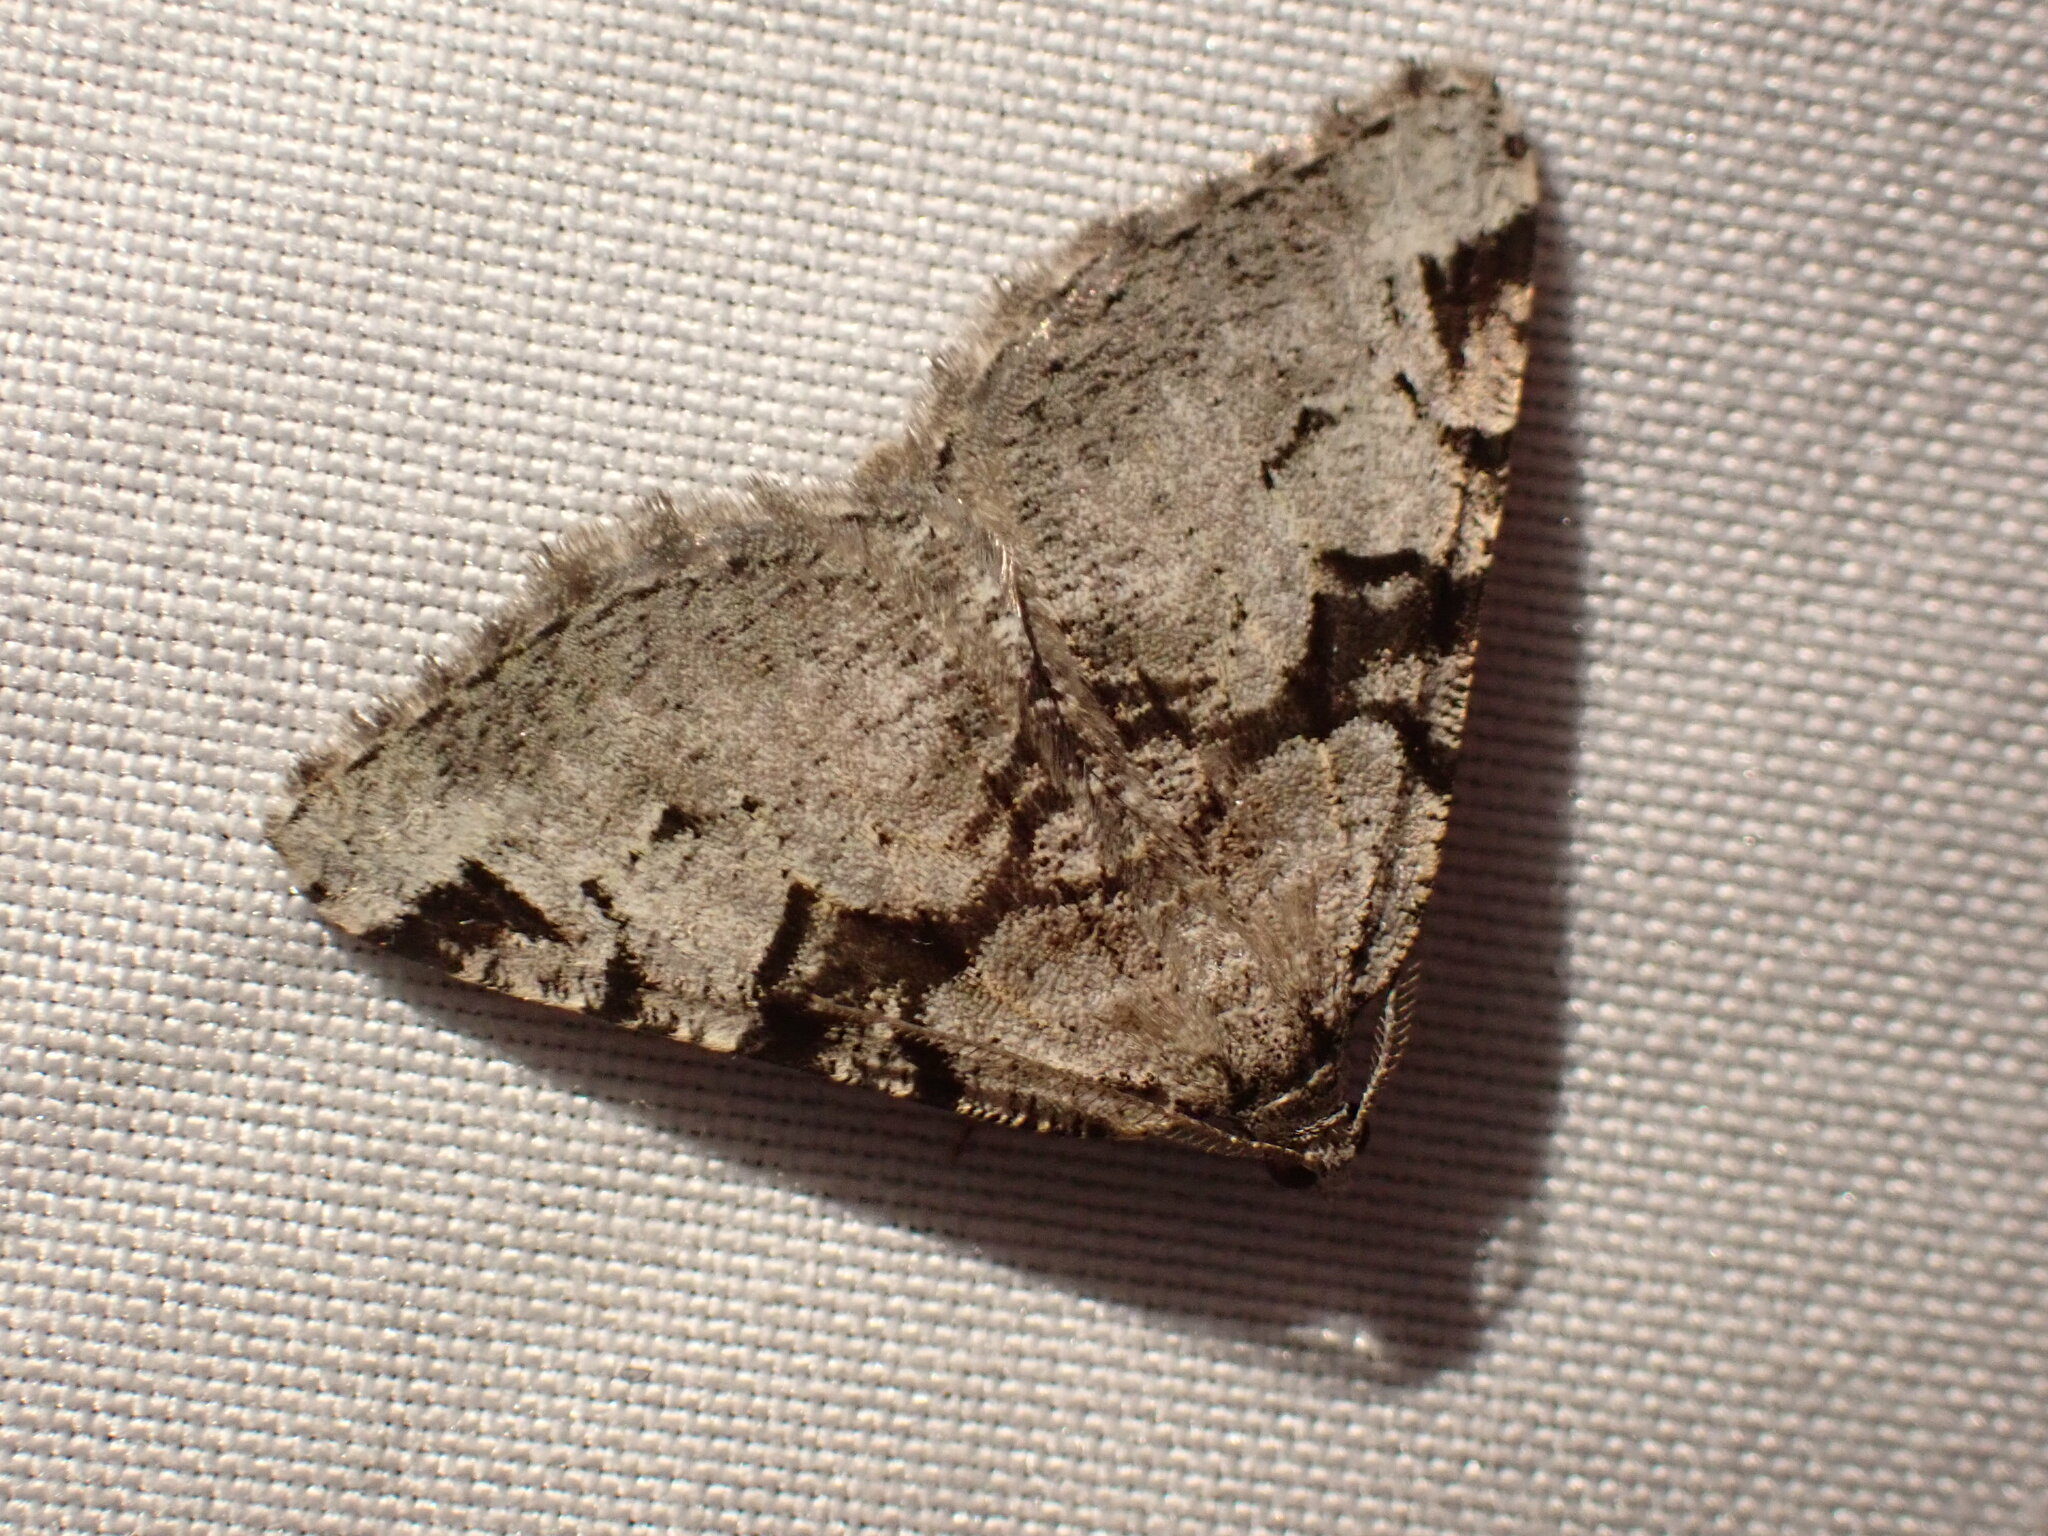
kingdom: Animalia
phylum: Arthropoda
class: Insecta
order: Lepidoptera
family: Geometridae
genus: Macaria
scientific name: Macaria bitactata
